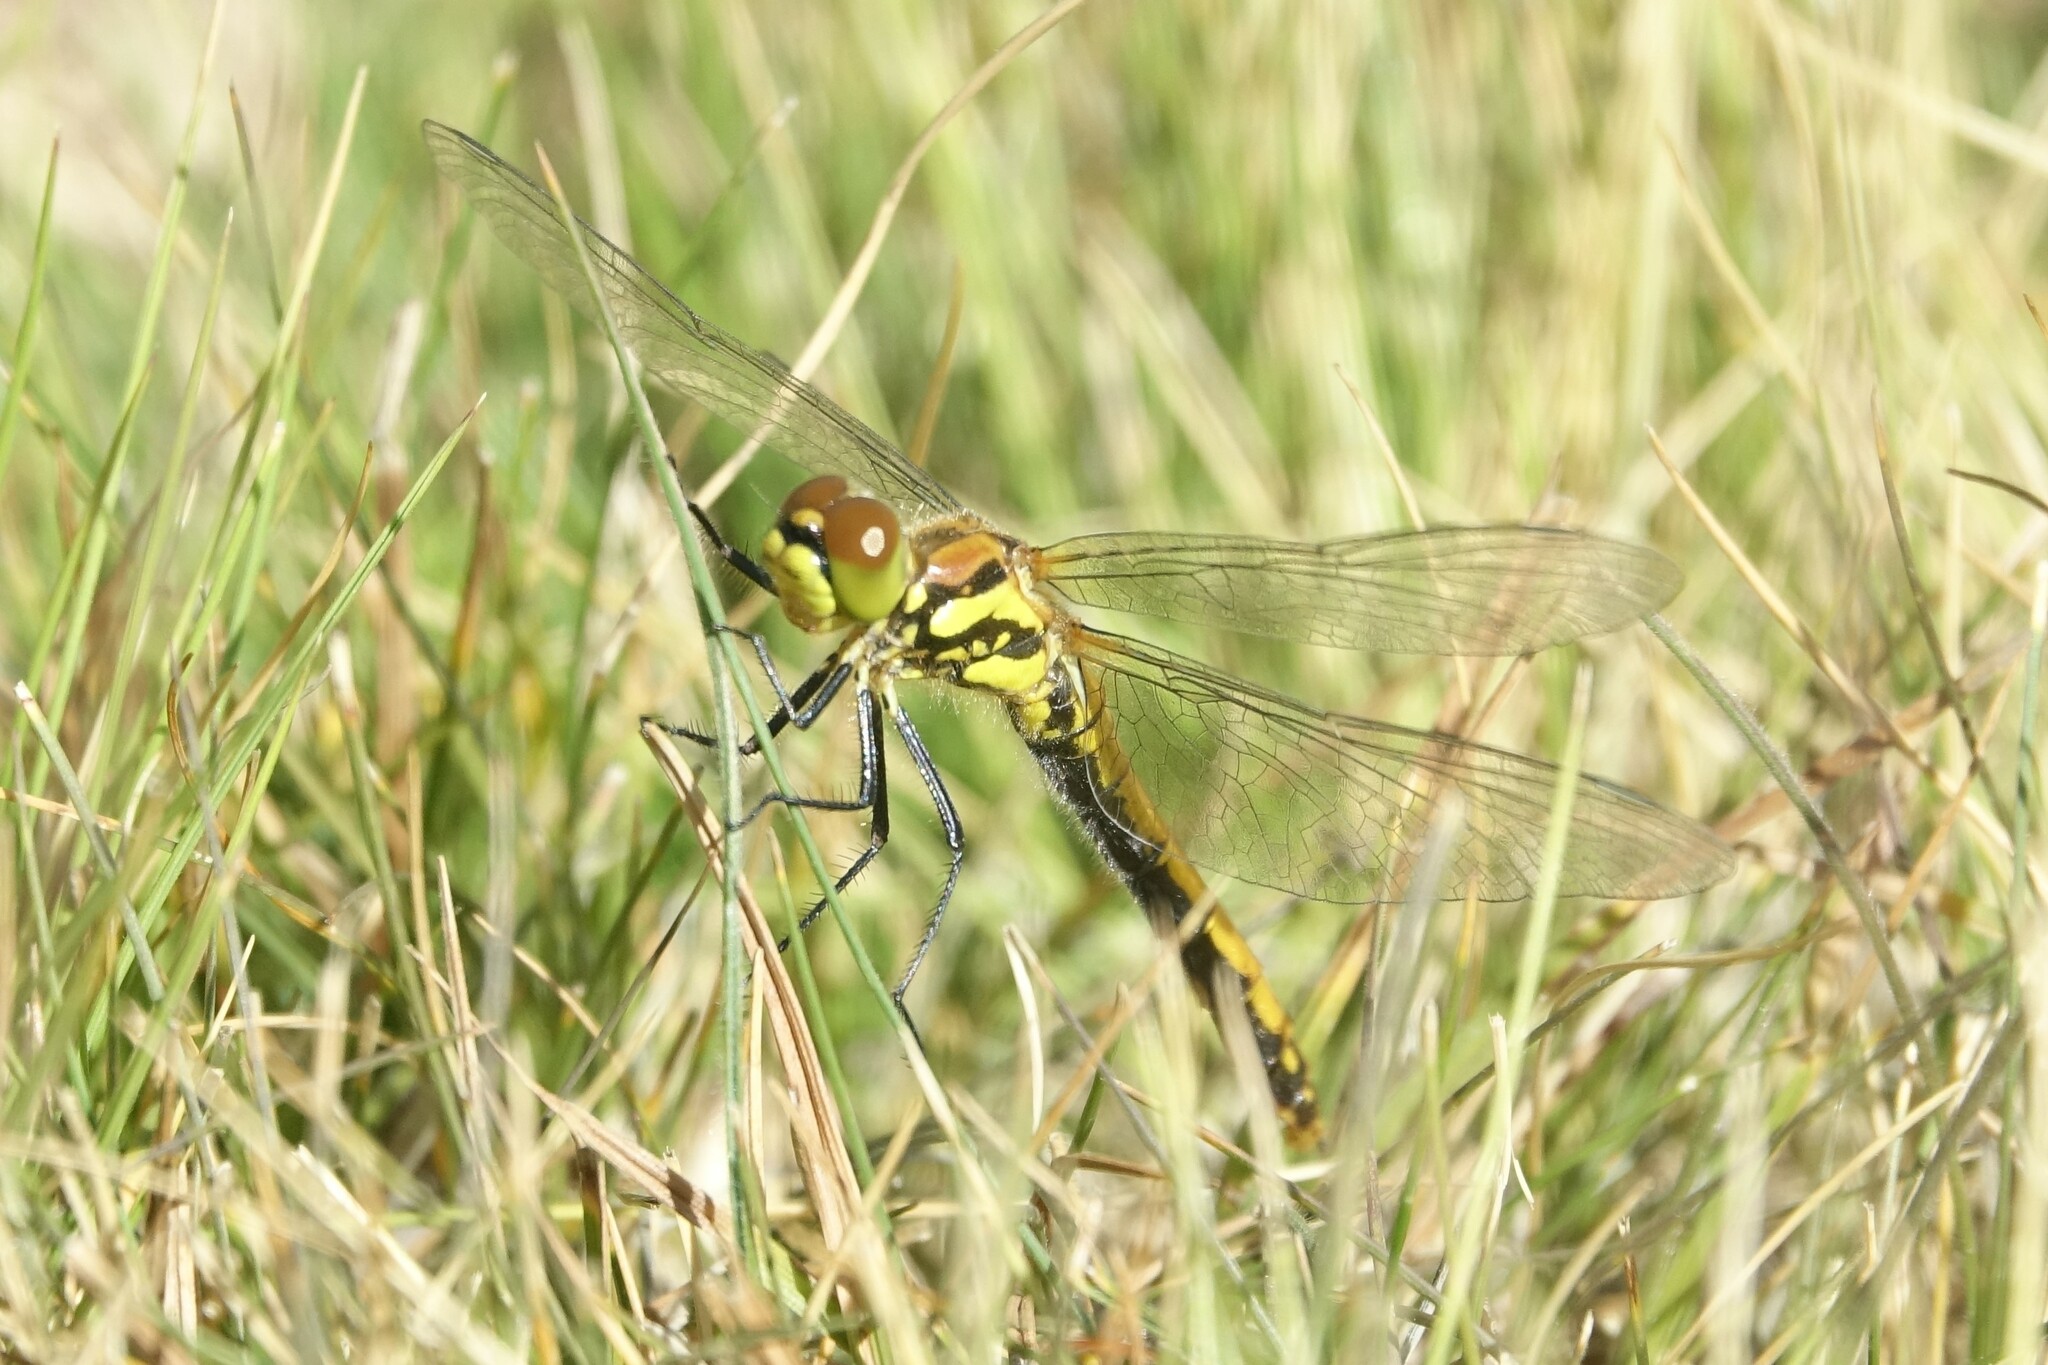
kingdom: Animalia
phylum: Arthropoda
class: Insecta
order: Odonata
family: Libellulidae
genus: Sympetrum
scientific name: Sympetrum danae
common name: Black darter
